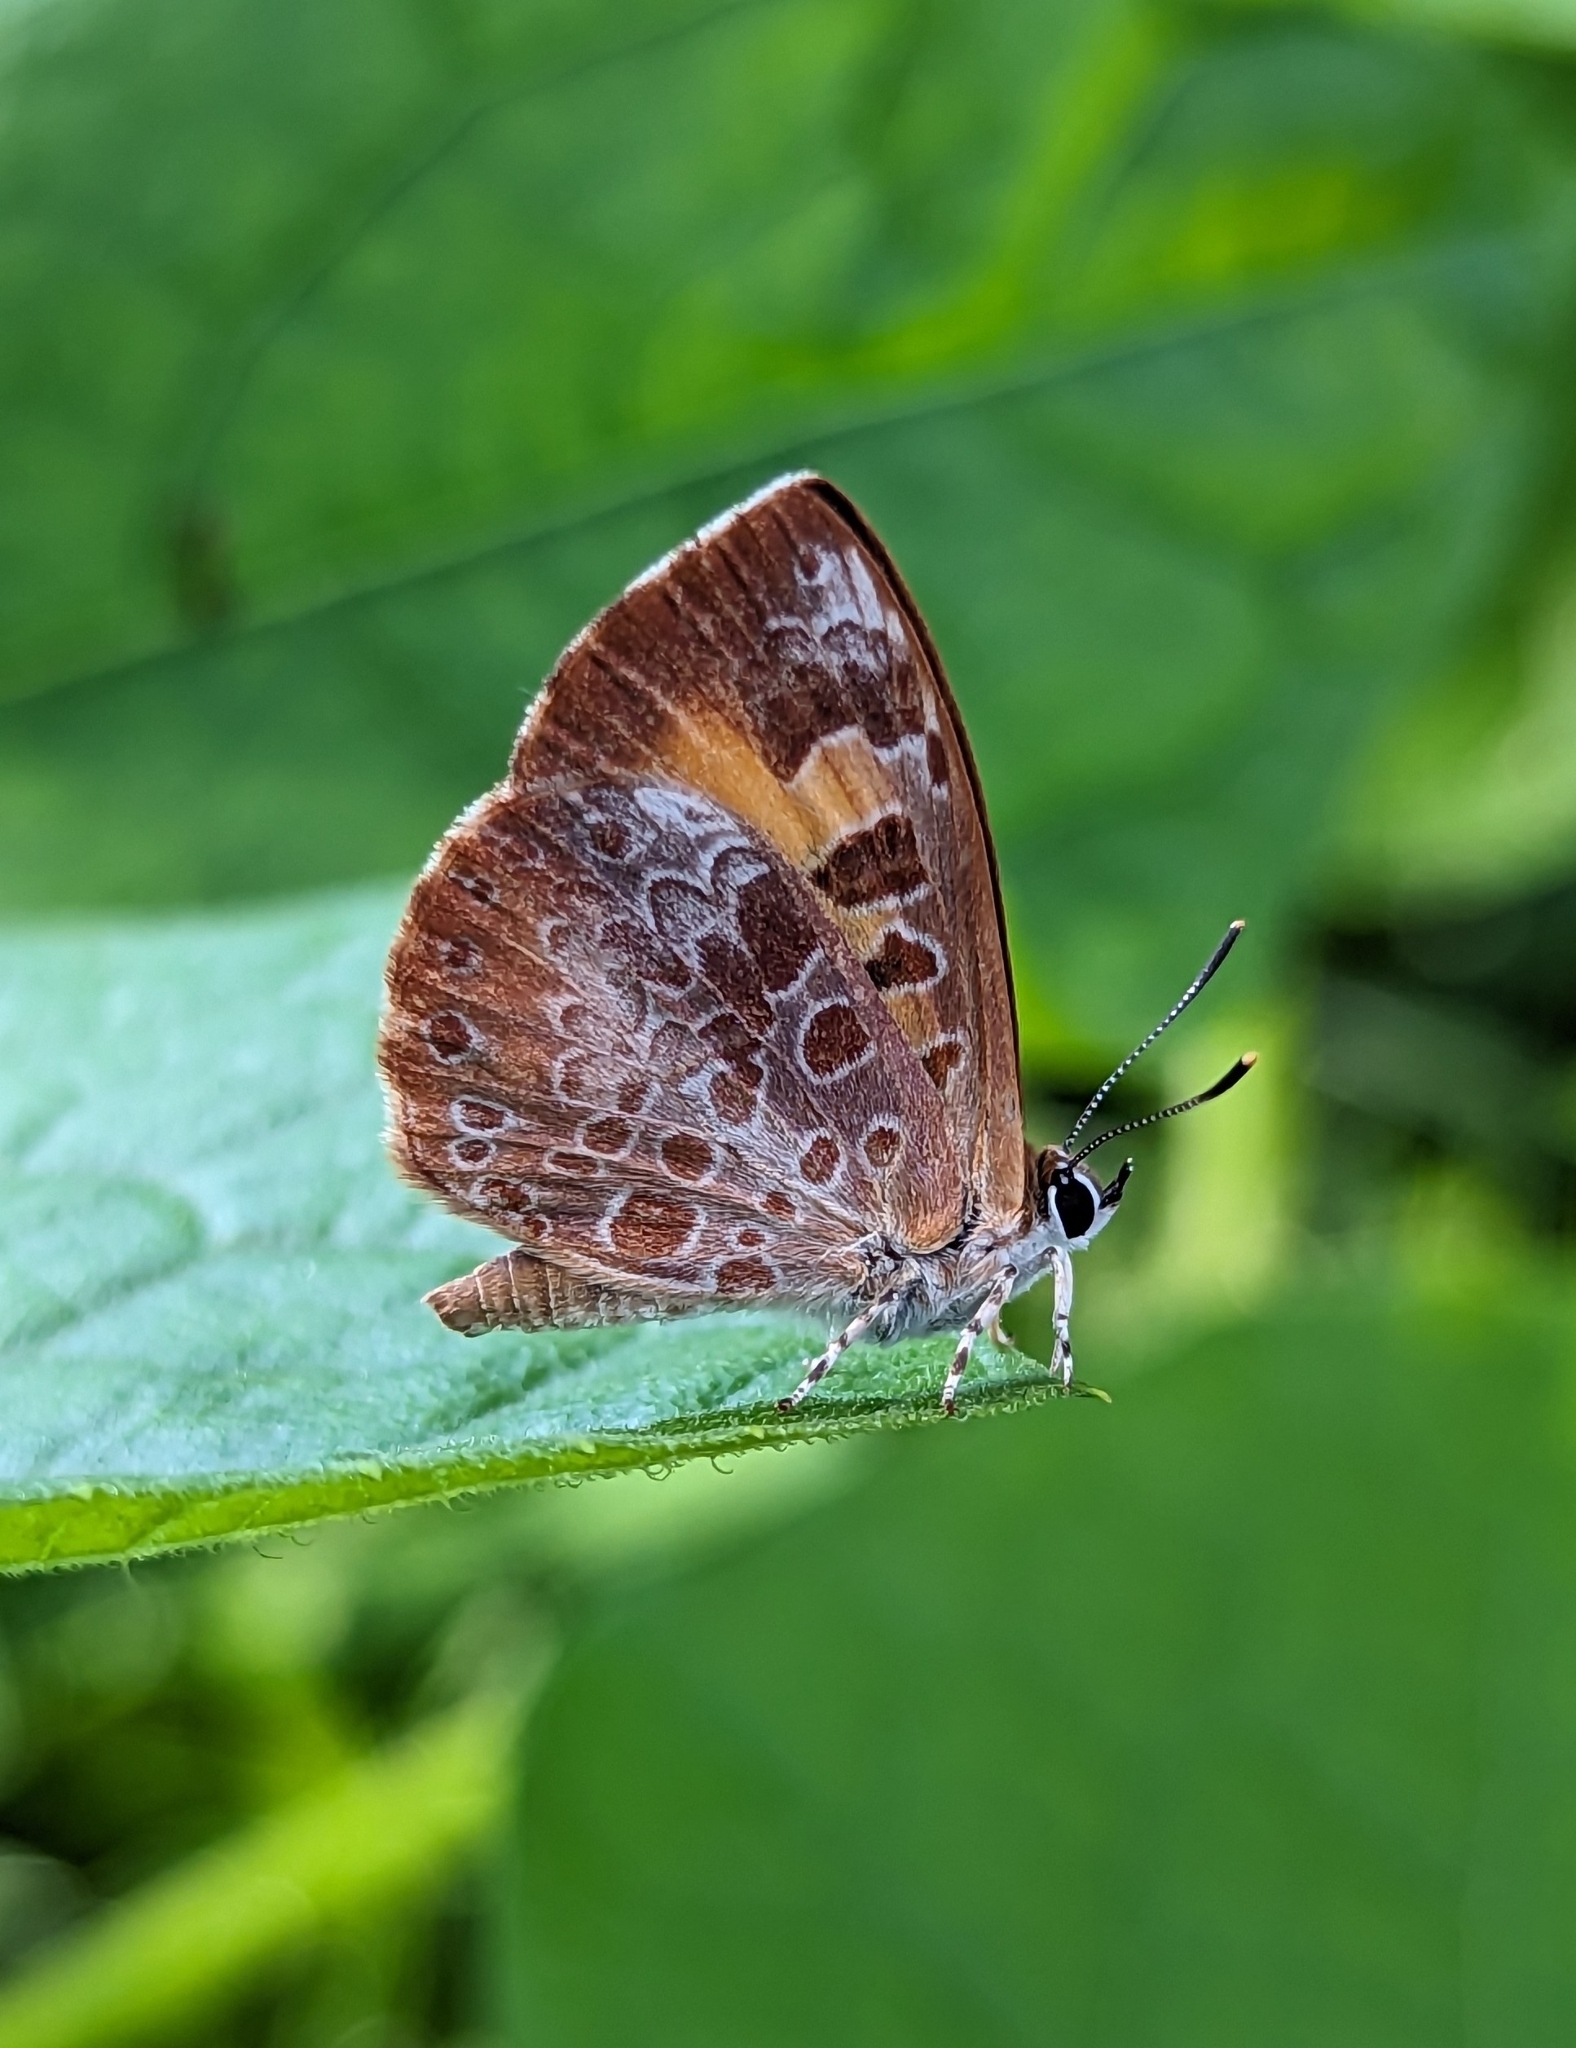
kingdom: Animalia
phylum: Arthropoda
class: Insecta
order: Lepidoptera
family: Lycaenidae
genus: Feniseca
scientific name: Feniseca tarquinius
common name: Harvester
